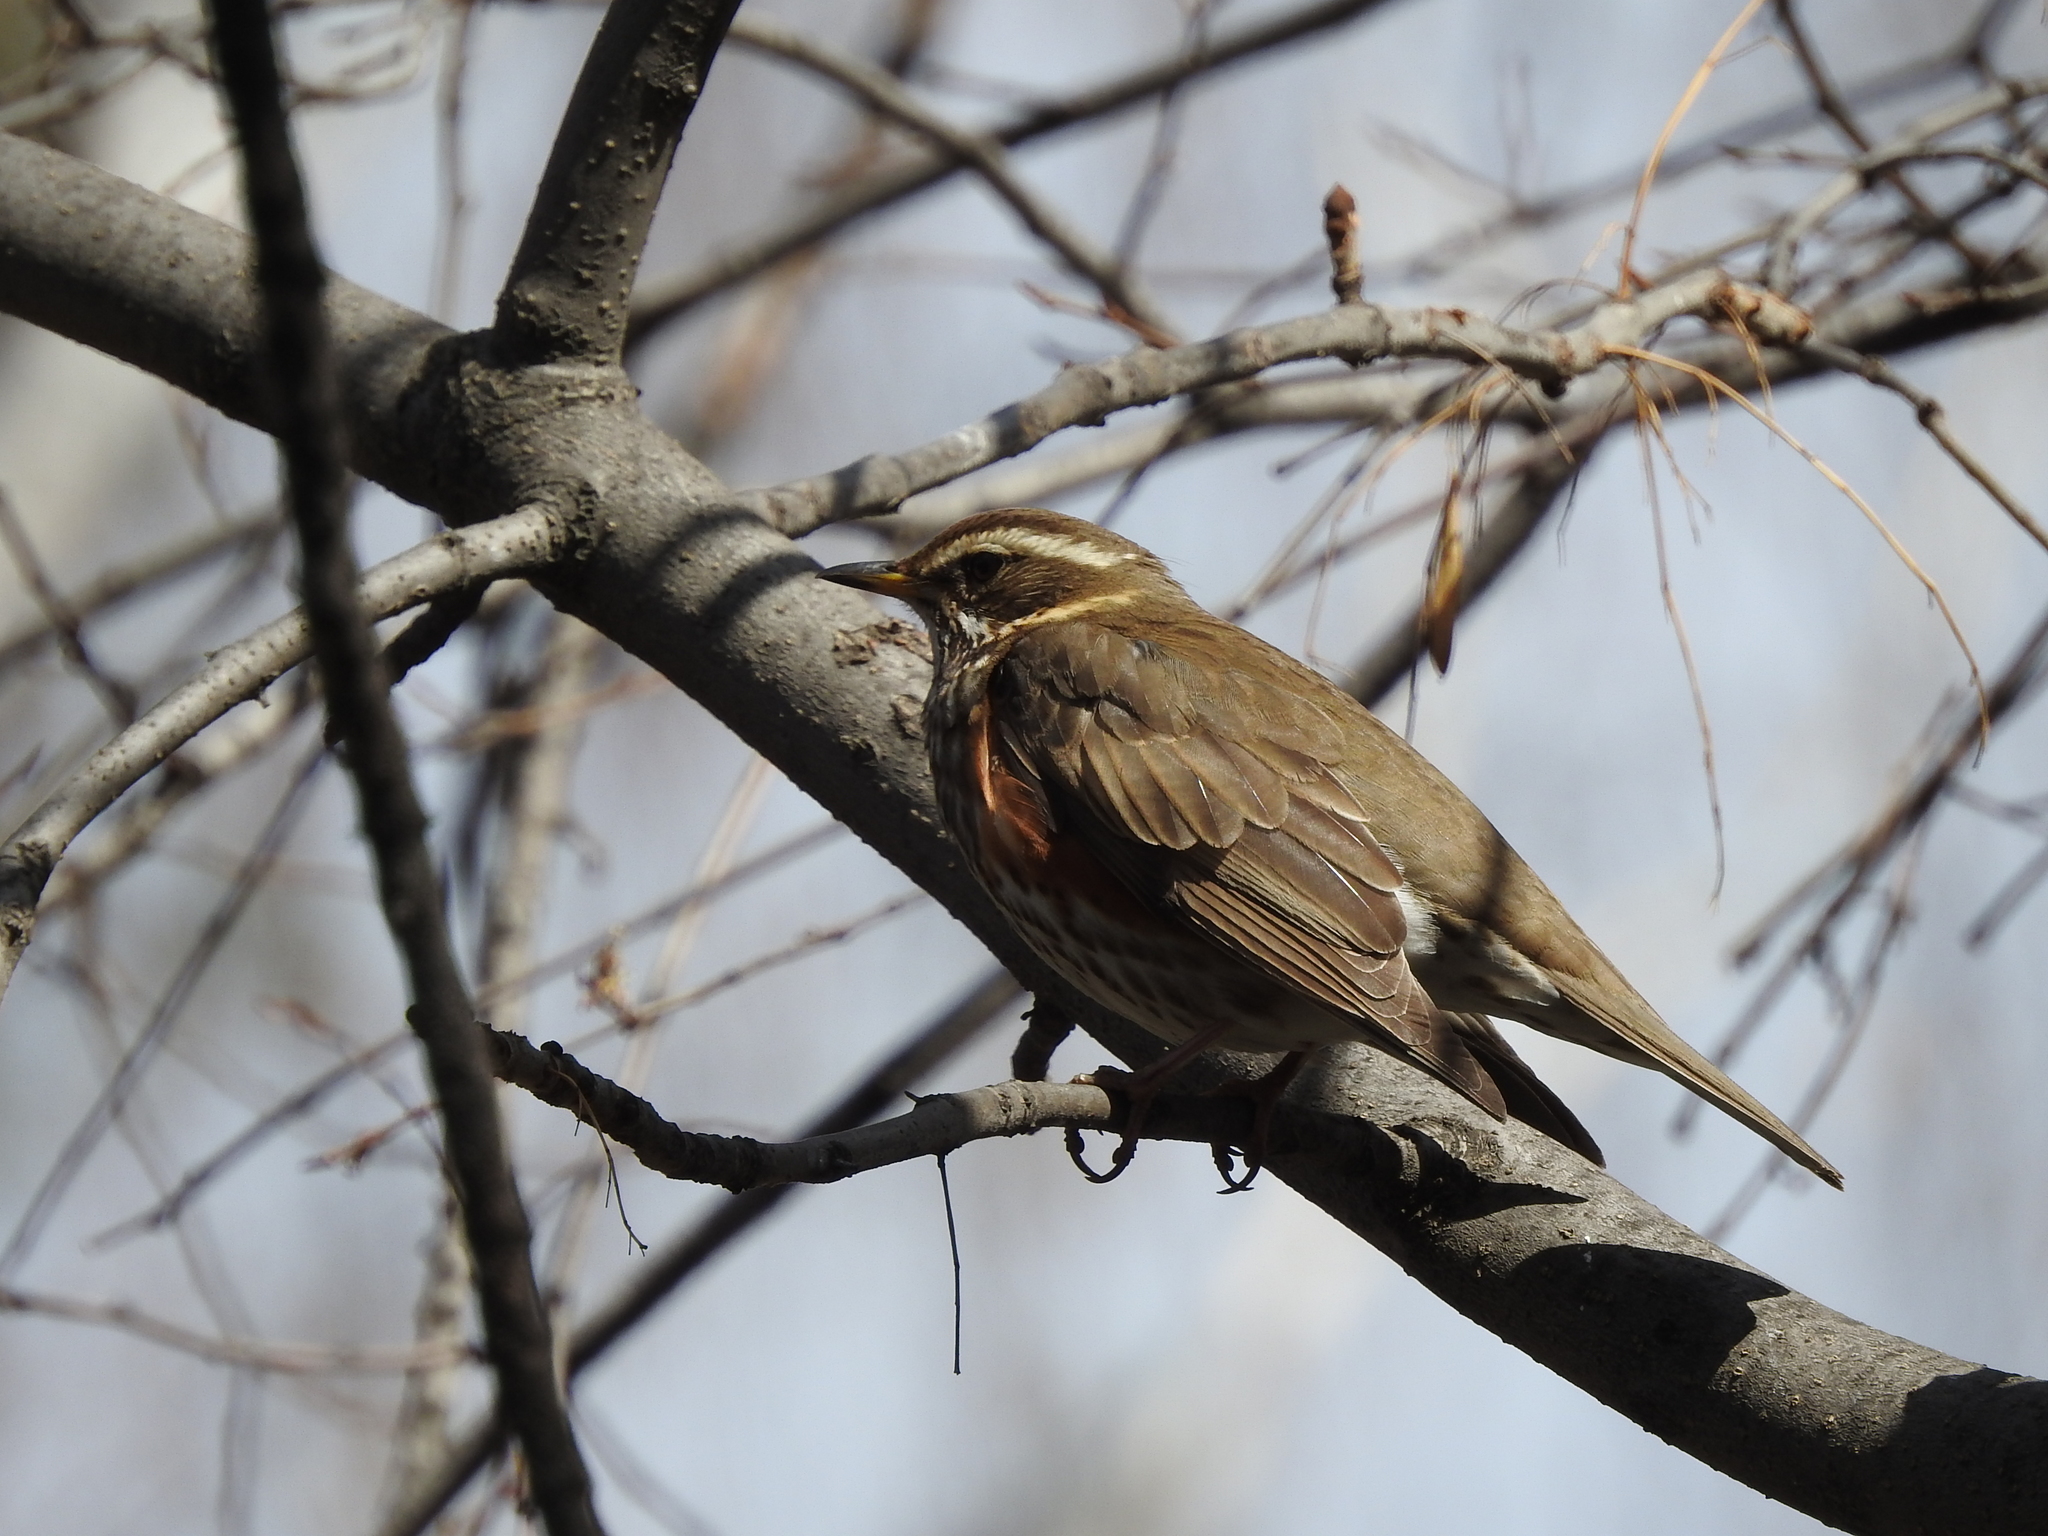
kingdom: Animalia
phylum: Chordata
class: Aves
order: Passeriformes
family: Turdidae
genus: Turdus
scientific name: Turdus iliacus
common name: Redwing
